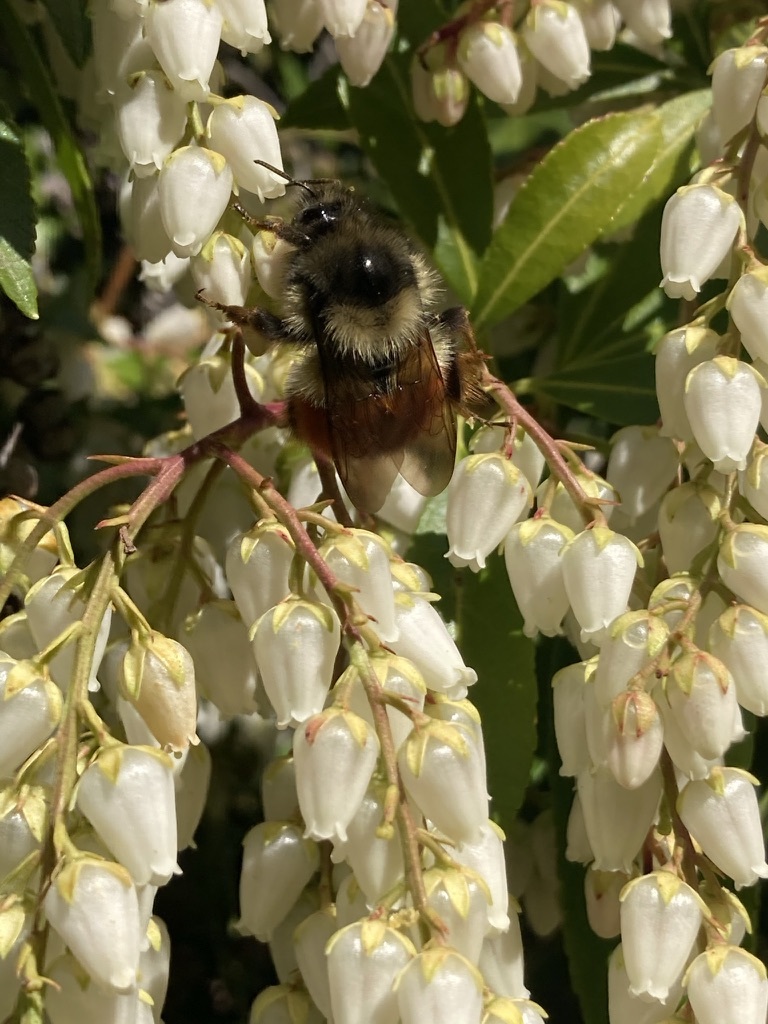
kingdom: Animalia
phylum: Arthropoda
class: Insecta
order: Hymenoptera
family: Apidae
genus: Bombus
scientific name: Bombus melanopygus
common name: Black tail bumble bee
